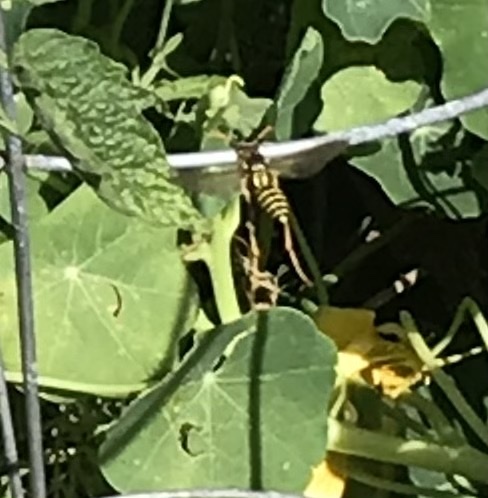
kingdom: Animalia
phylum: Arthropoda
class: Insecta
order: Hymenoptera
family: Eumenidae
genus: Polistes
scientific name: Polistes dominula
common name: Paper wasp
